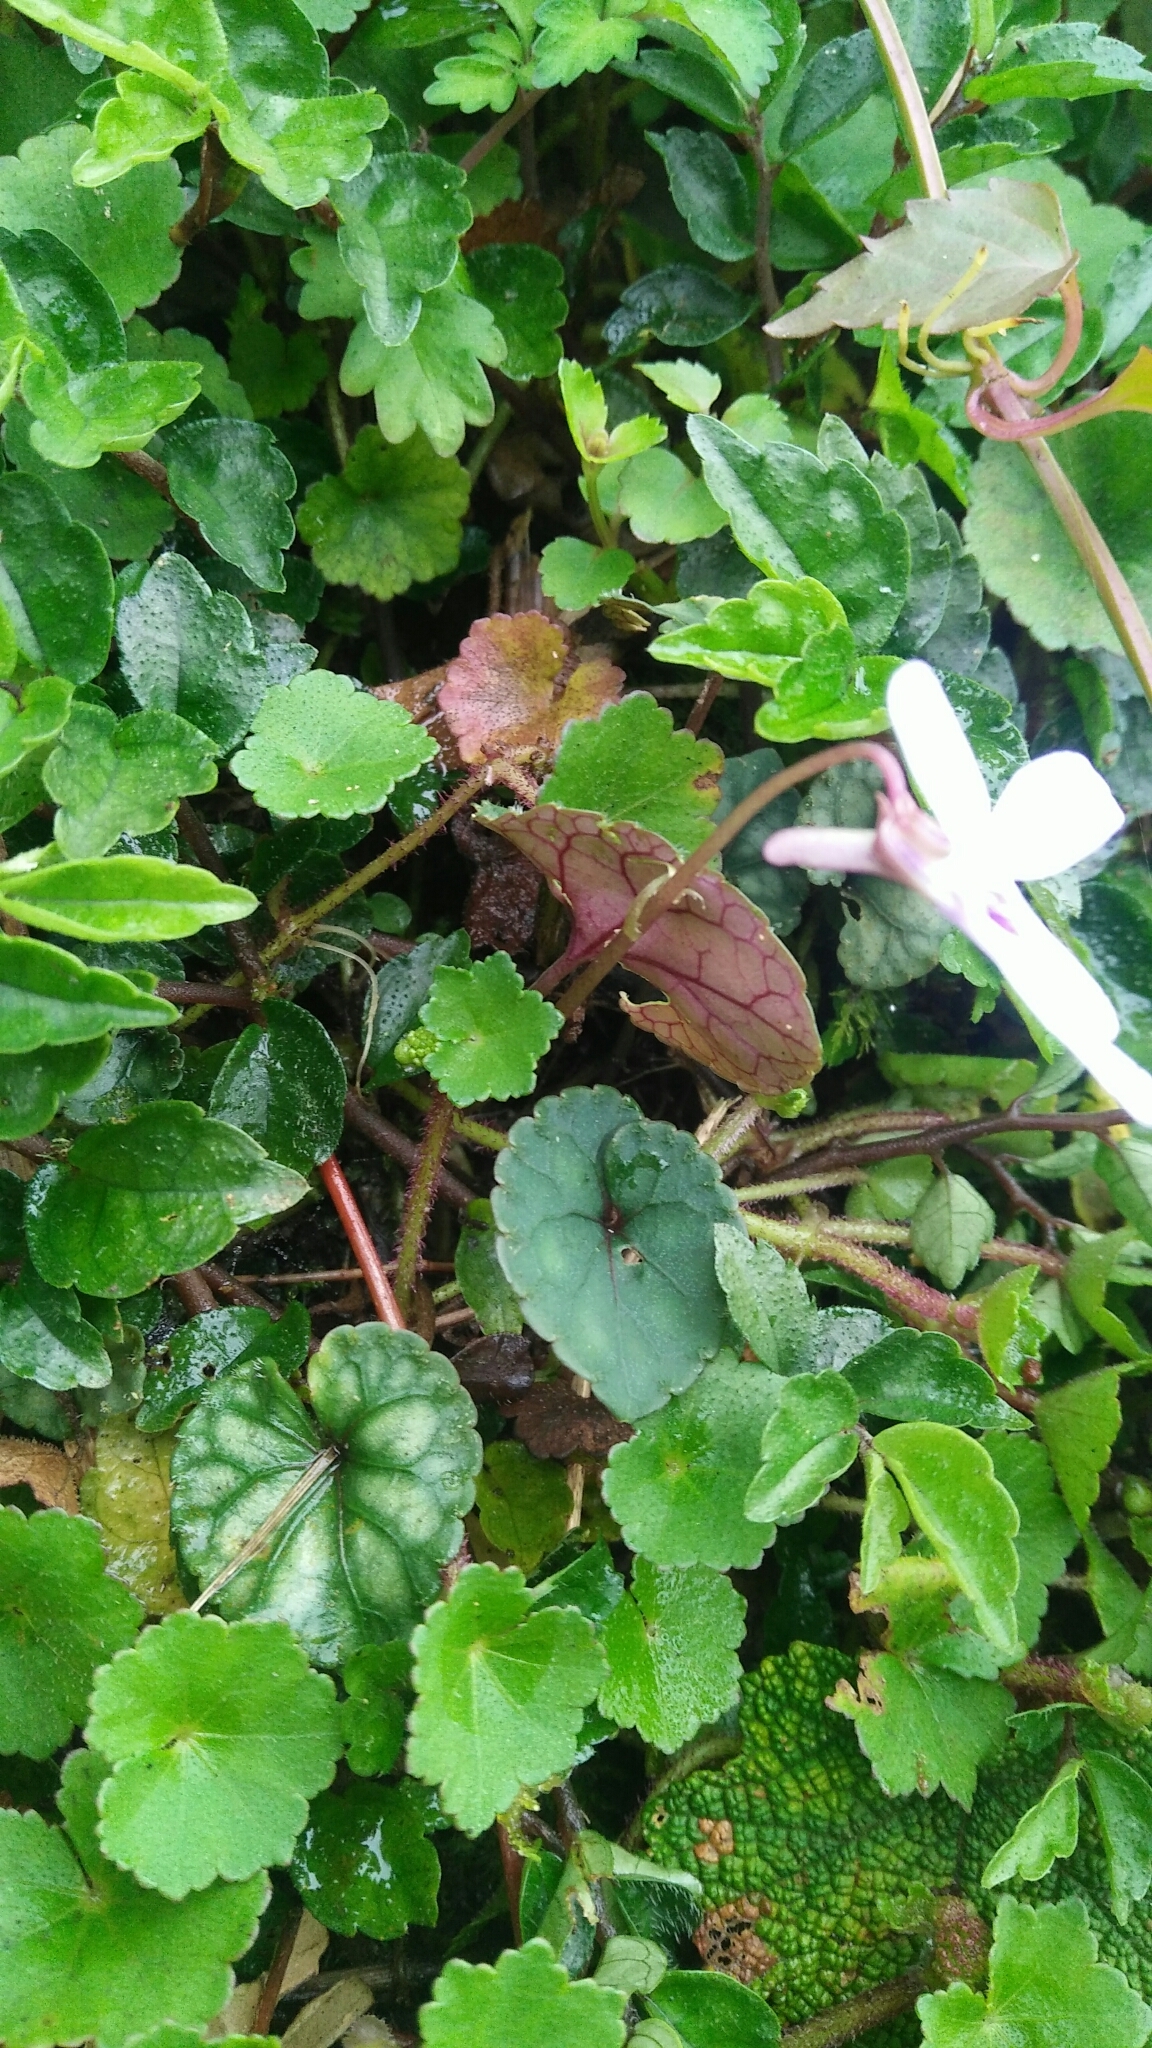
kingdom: Plantae
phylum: Tracheophyta
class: Magnoliopsida
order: Malpighiales
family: Violaceae
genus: Viola
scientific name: Viola formosana
